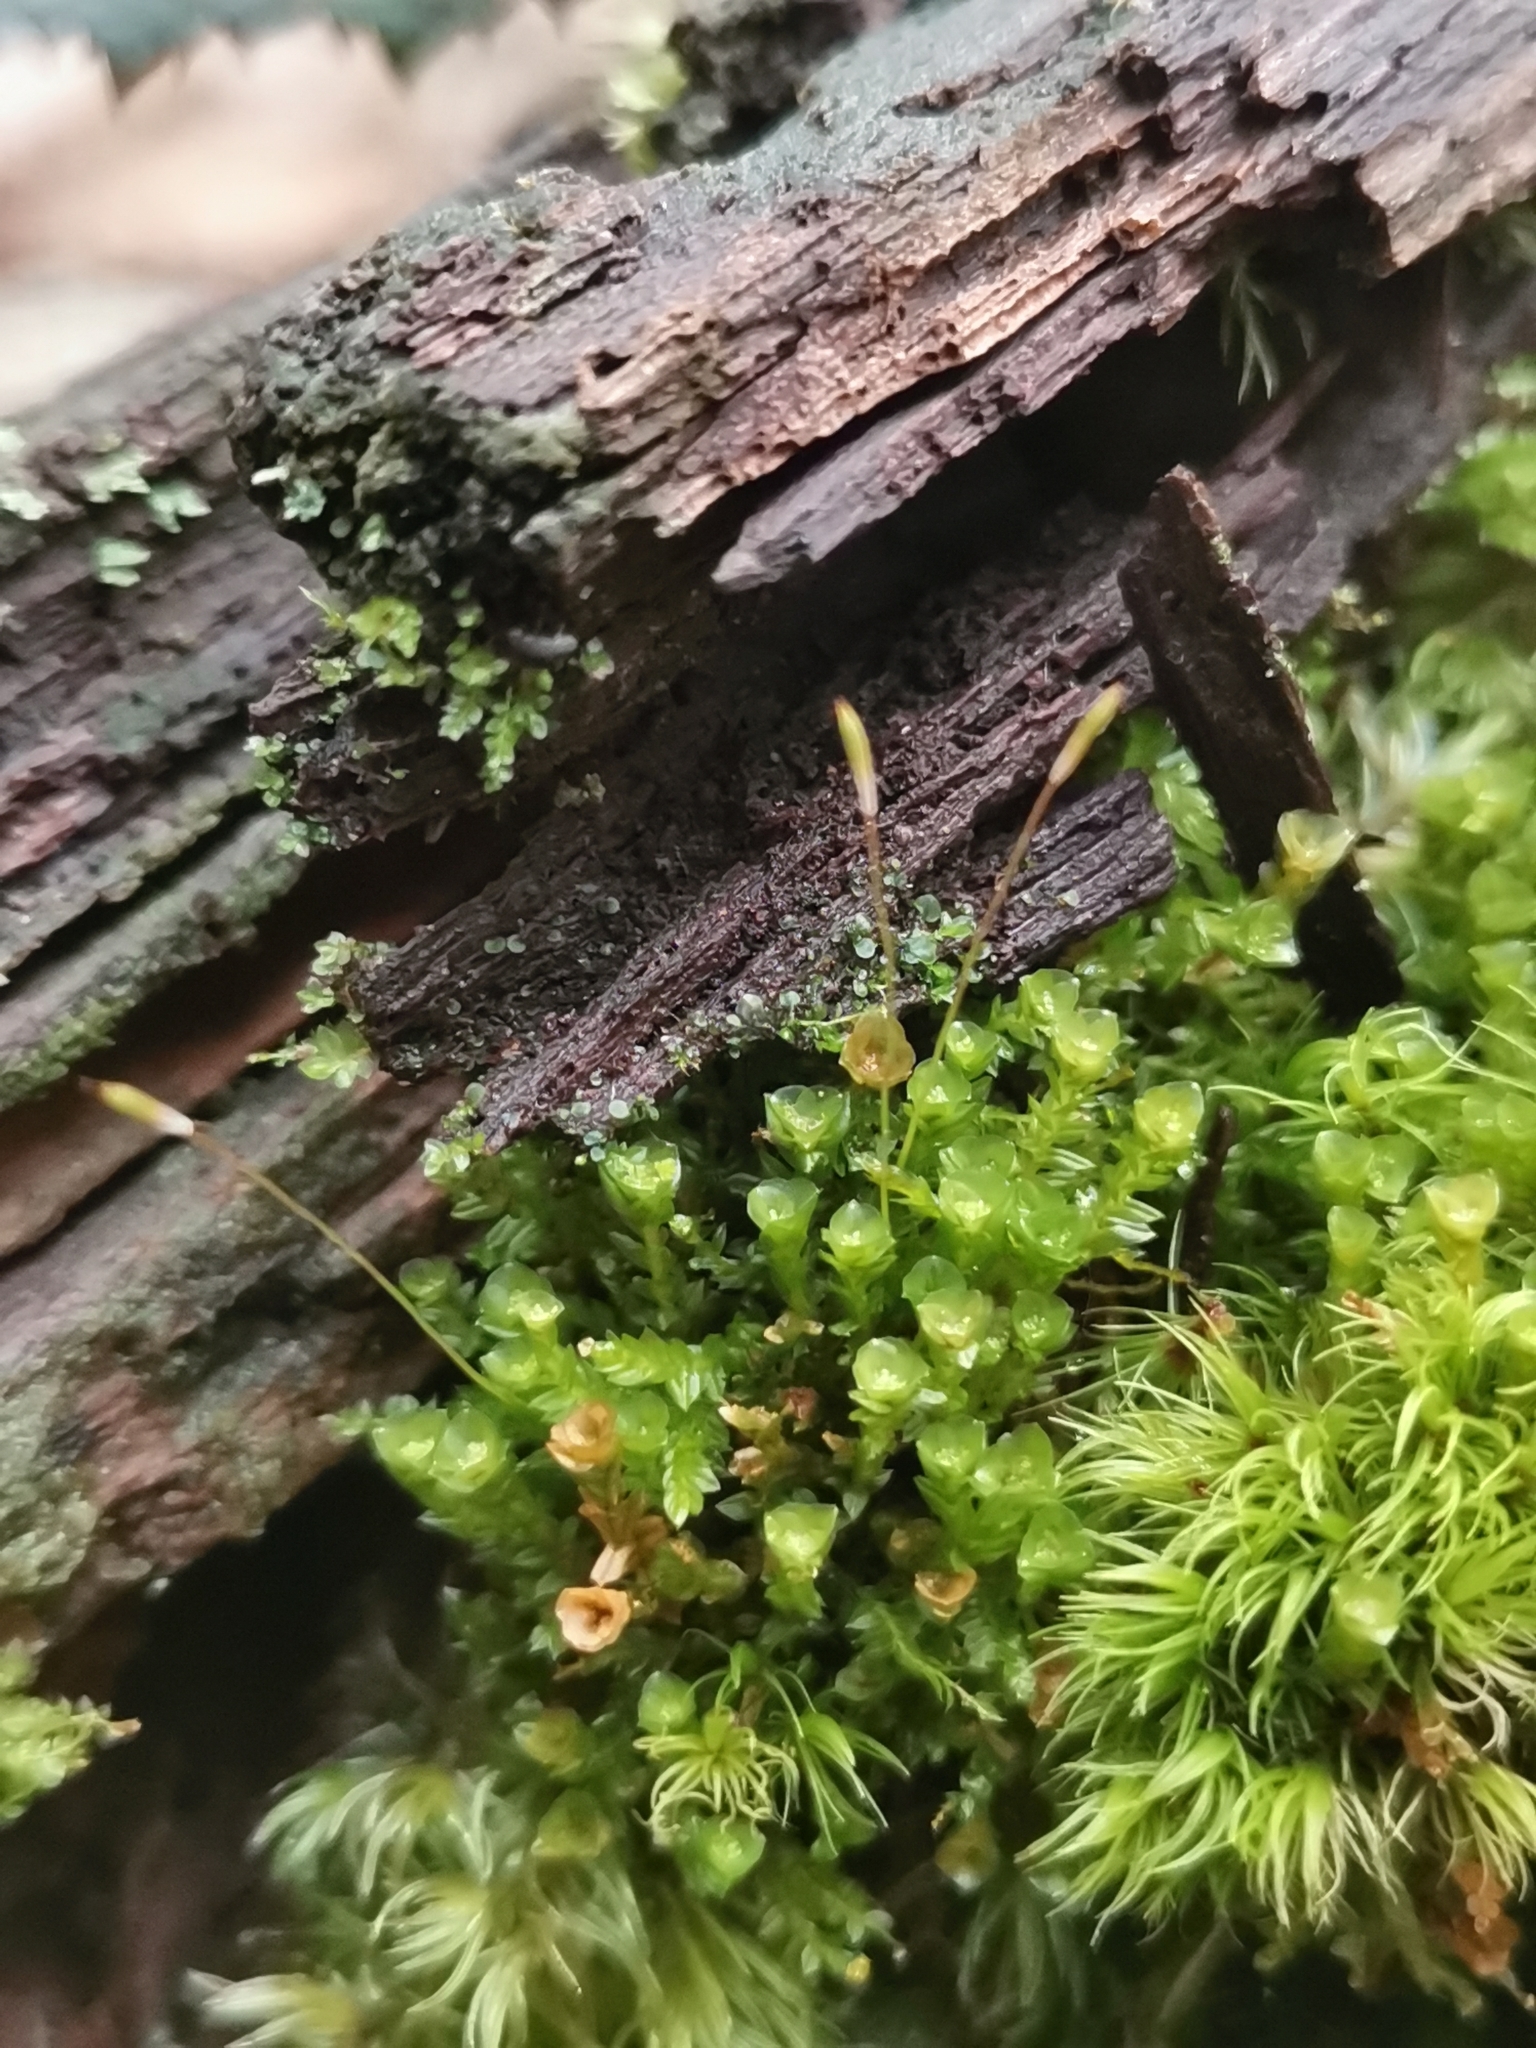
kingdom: Plantae
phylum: Bryophyta
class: Polytrichopsida
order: Tetraphidales
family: Tetraphidaceae
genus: Tetraphis
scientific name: Tetraphis pellucida
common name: Common four-toothed moss
